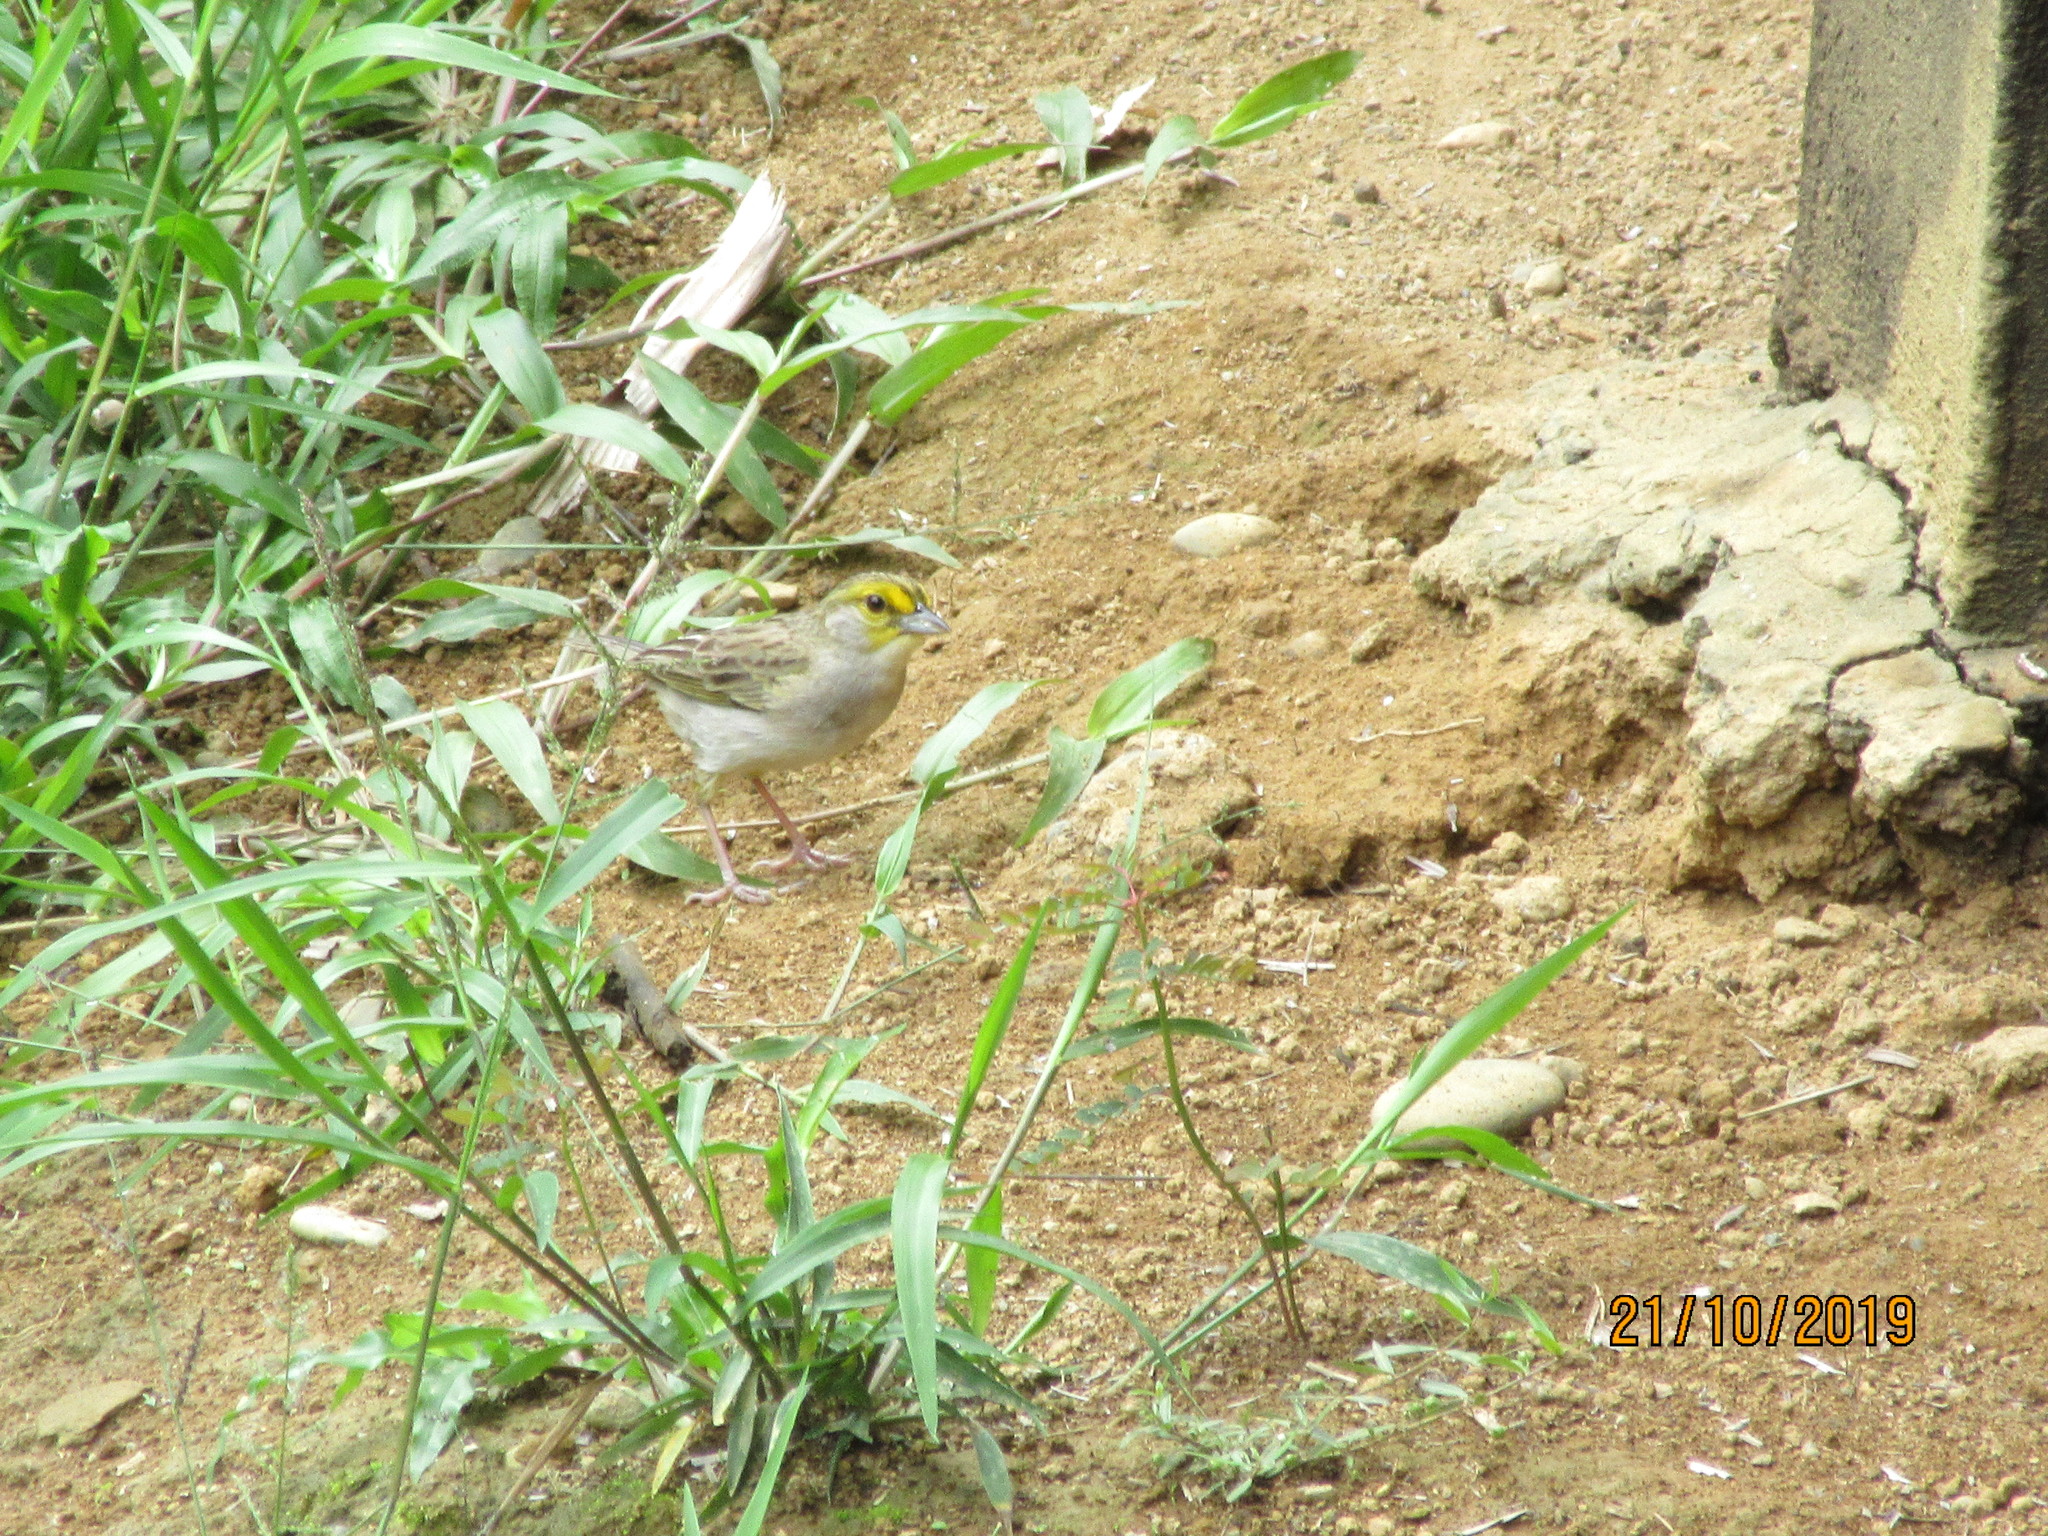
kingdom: Animalia
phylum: Chordata
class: Aves
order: Passeriformes
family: Passerellidae
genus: Ammodramus
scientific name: Ammodramus aurifrons
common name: Yellow-browed sparrow
